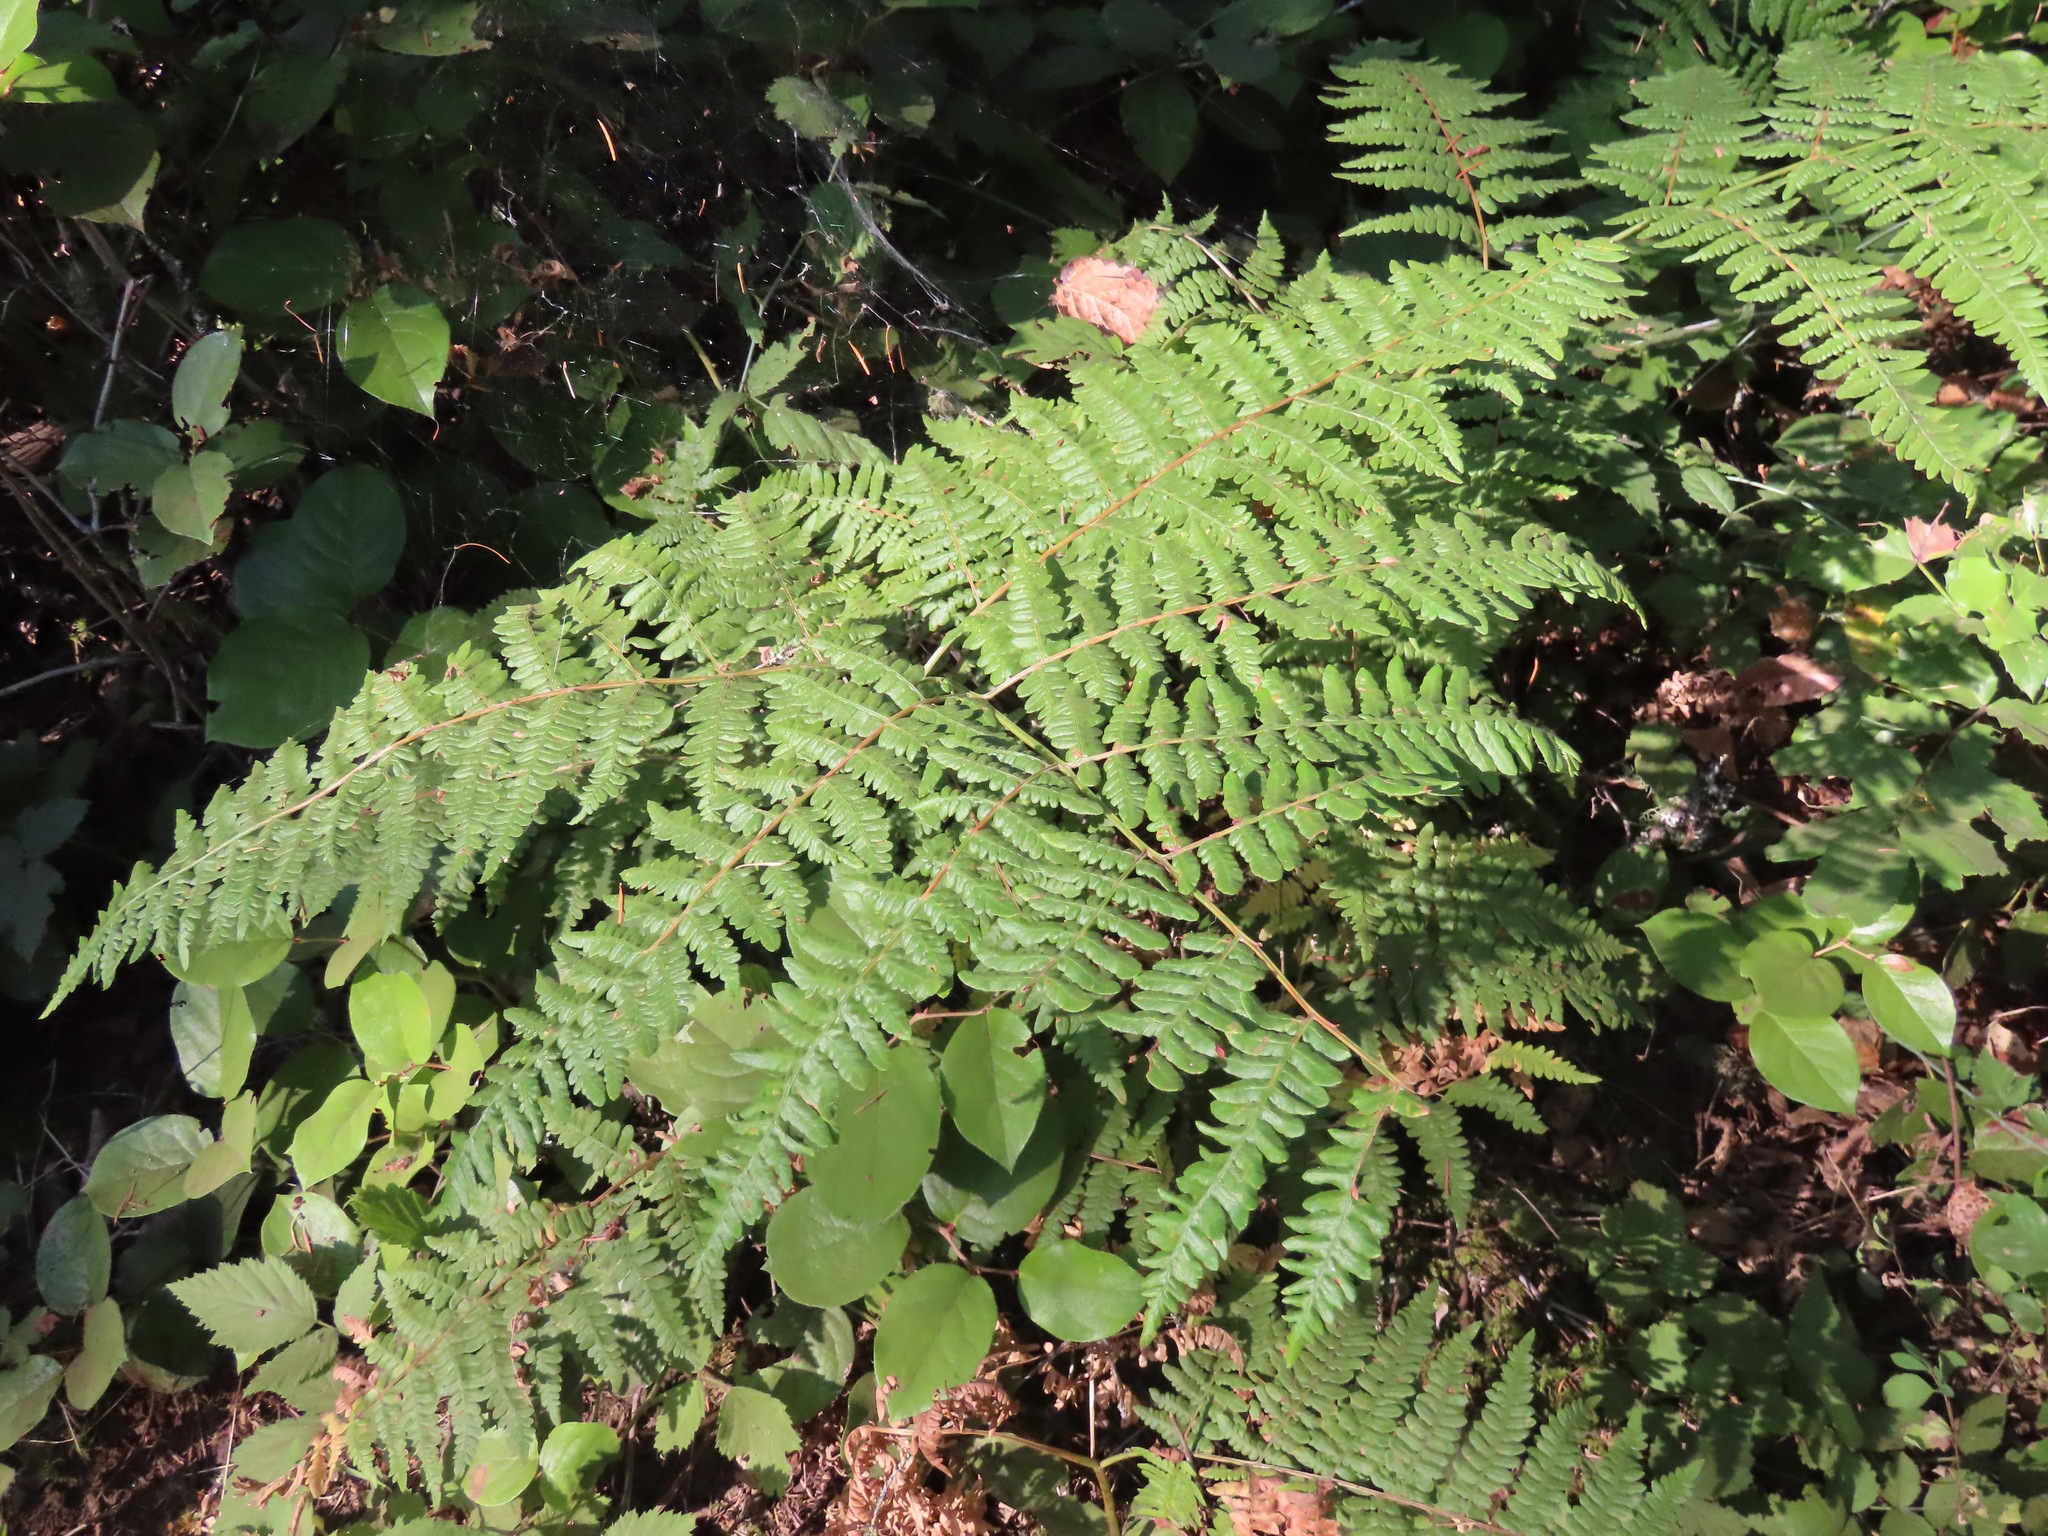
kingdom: Plantae
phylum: Tracheophyta
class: Polypodiopsida
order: Polypodiales
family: Dennstaedtiaceae
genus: Pteridium
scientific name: Pteridium aquilinum
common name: Bracken
